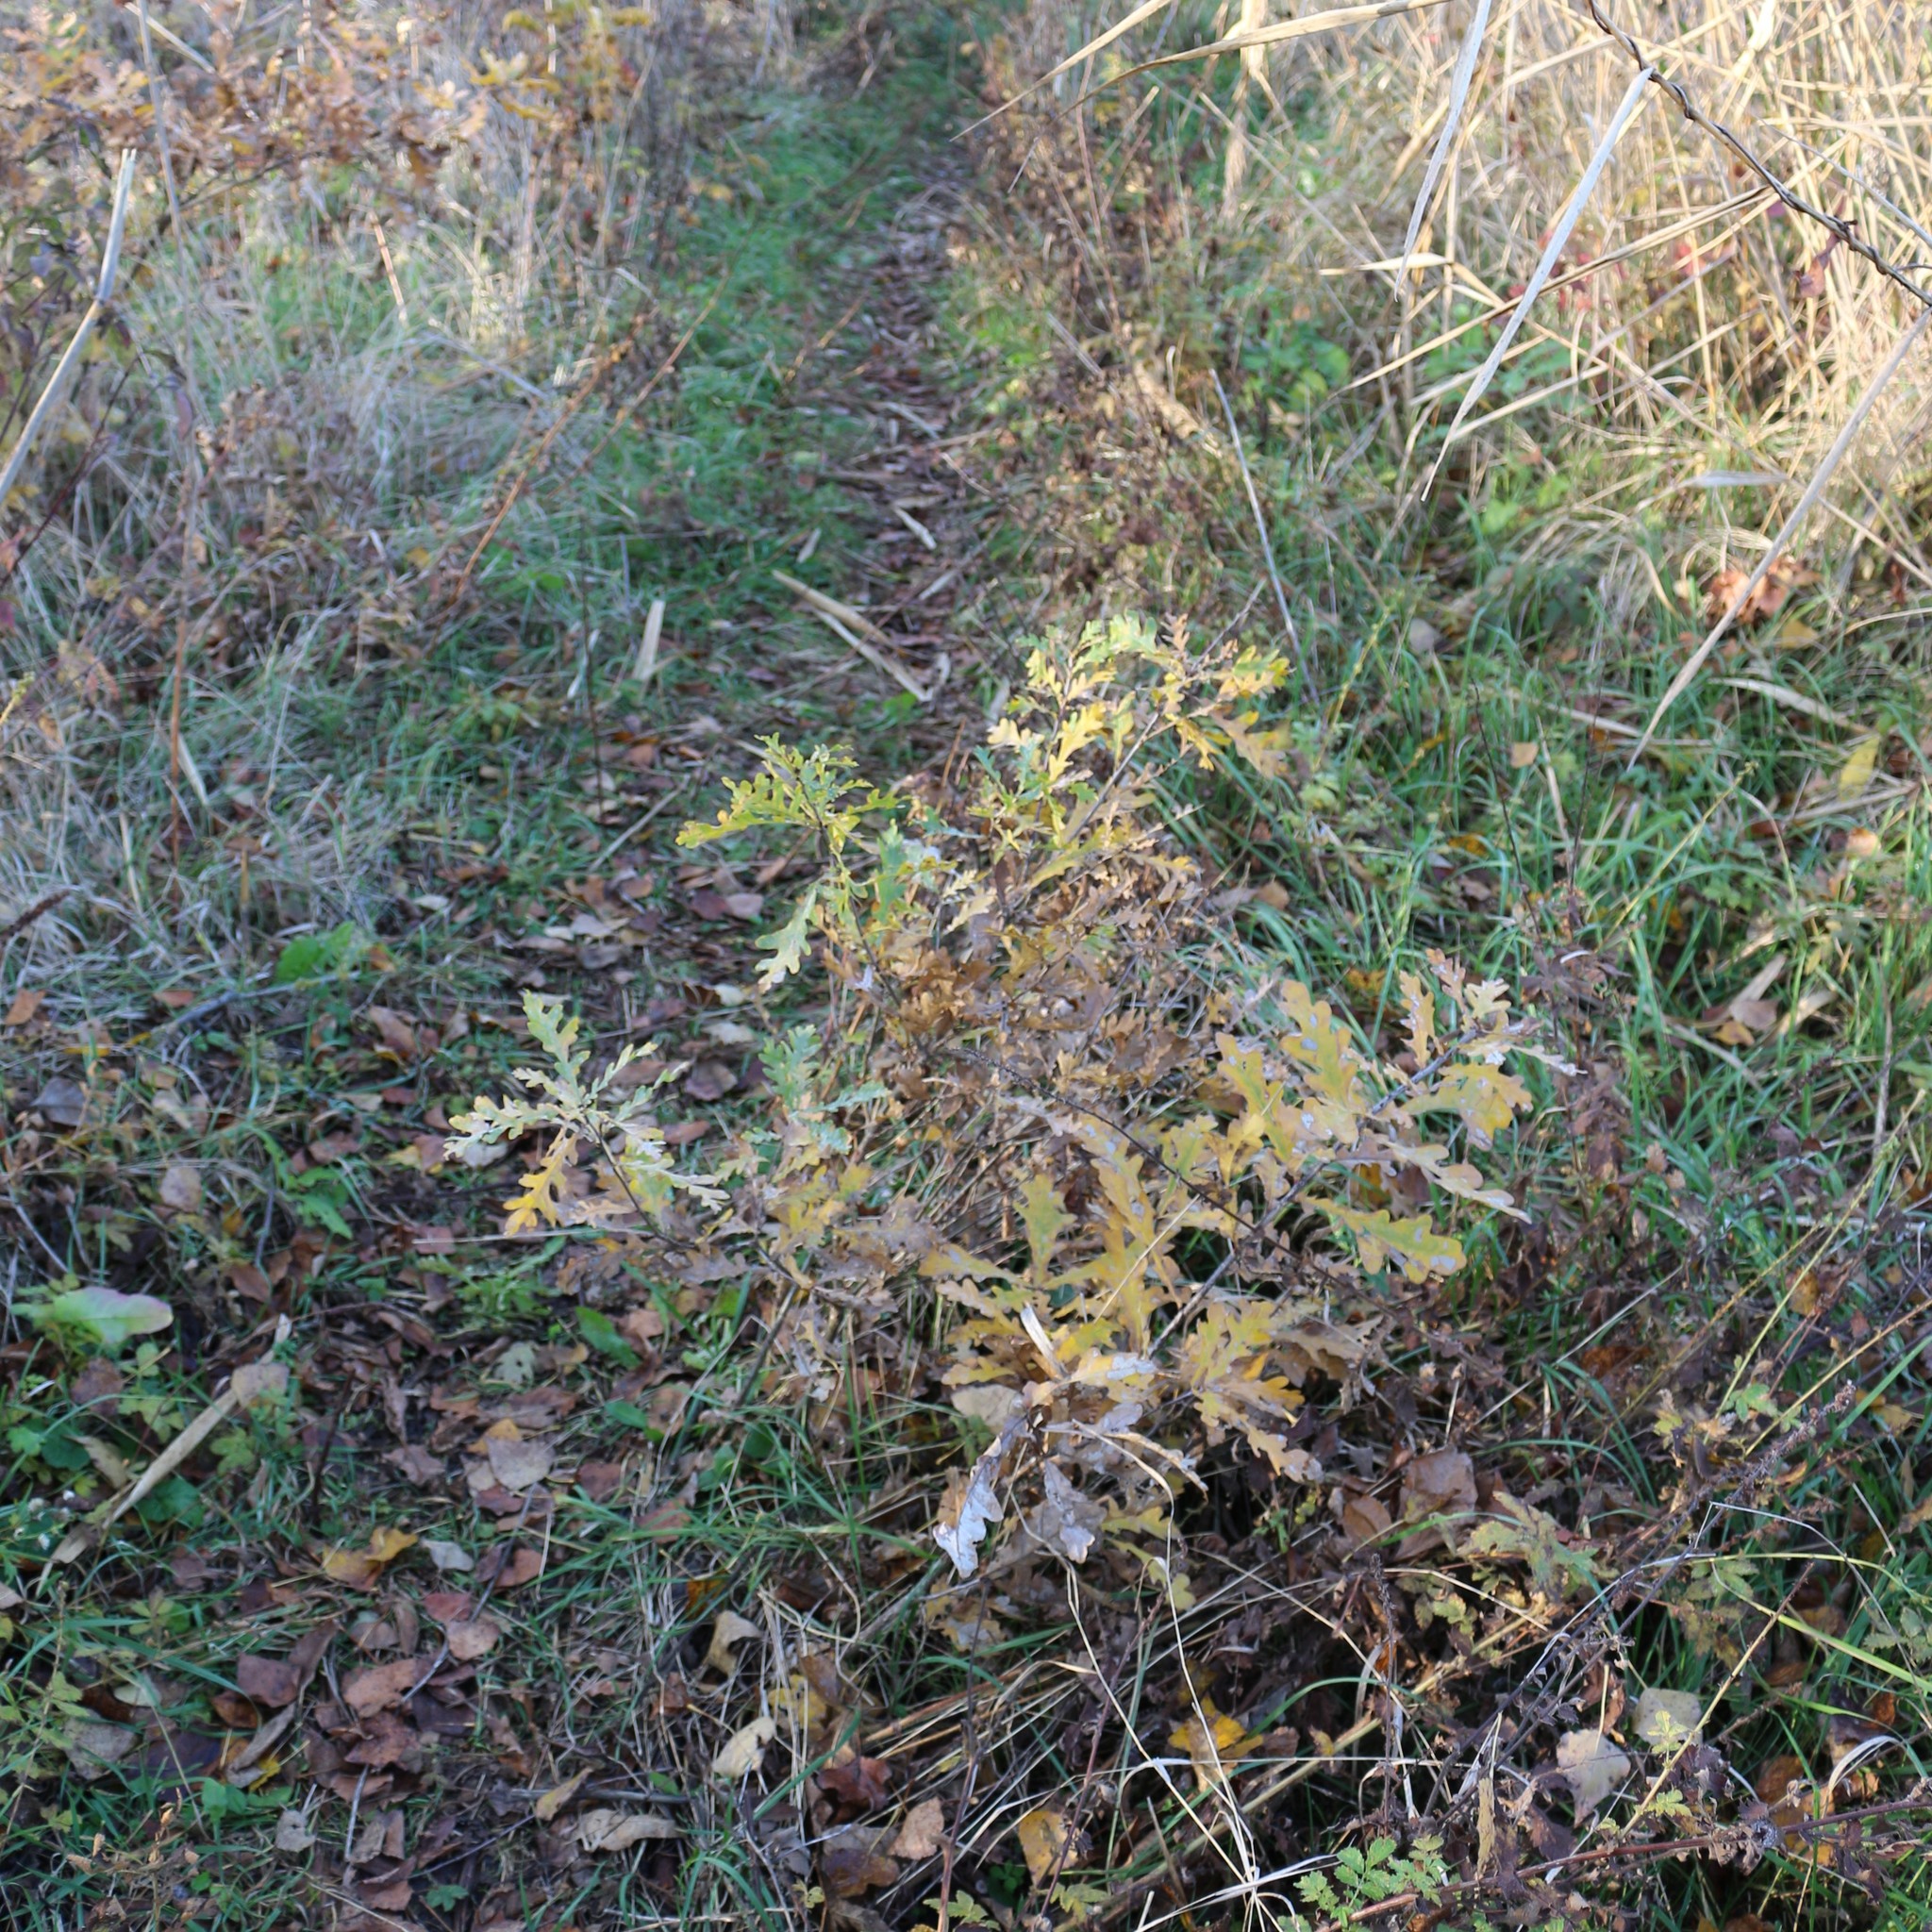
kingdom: Plantae
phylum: Tracheophyta
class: Magnoliopsida
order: Fagales
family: Fagaceae
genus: Quercus
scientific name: Quercus robur
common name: Pedunculate oak
